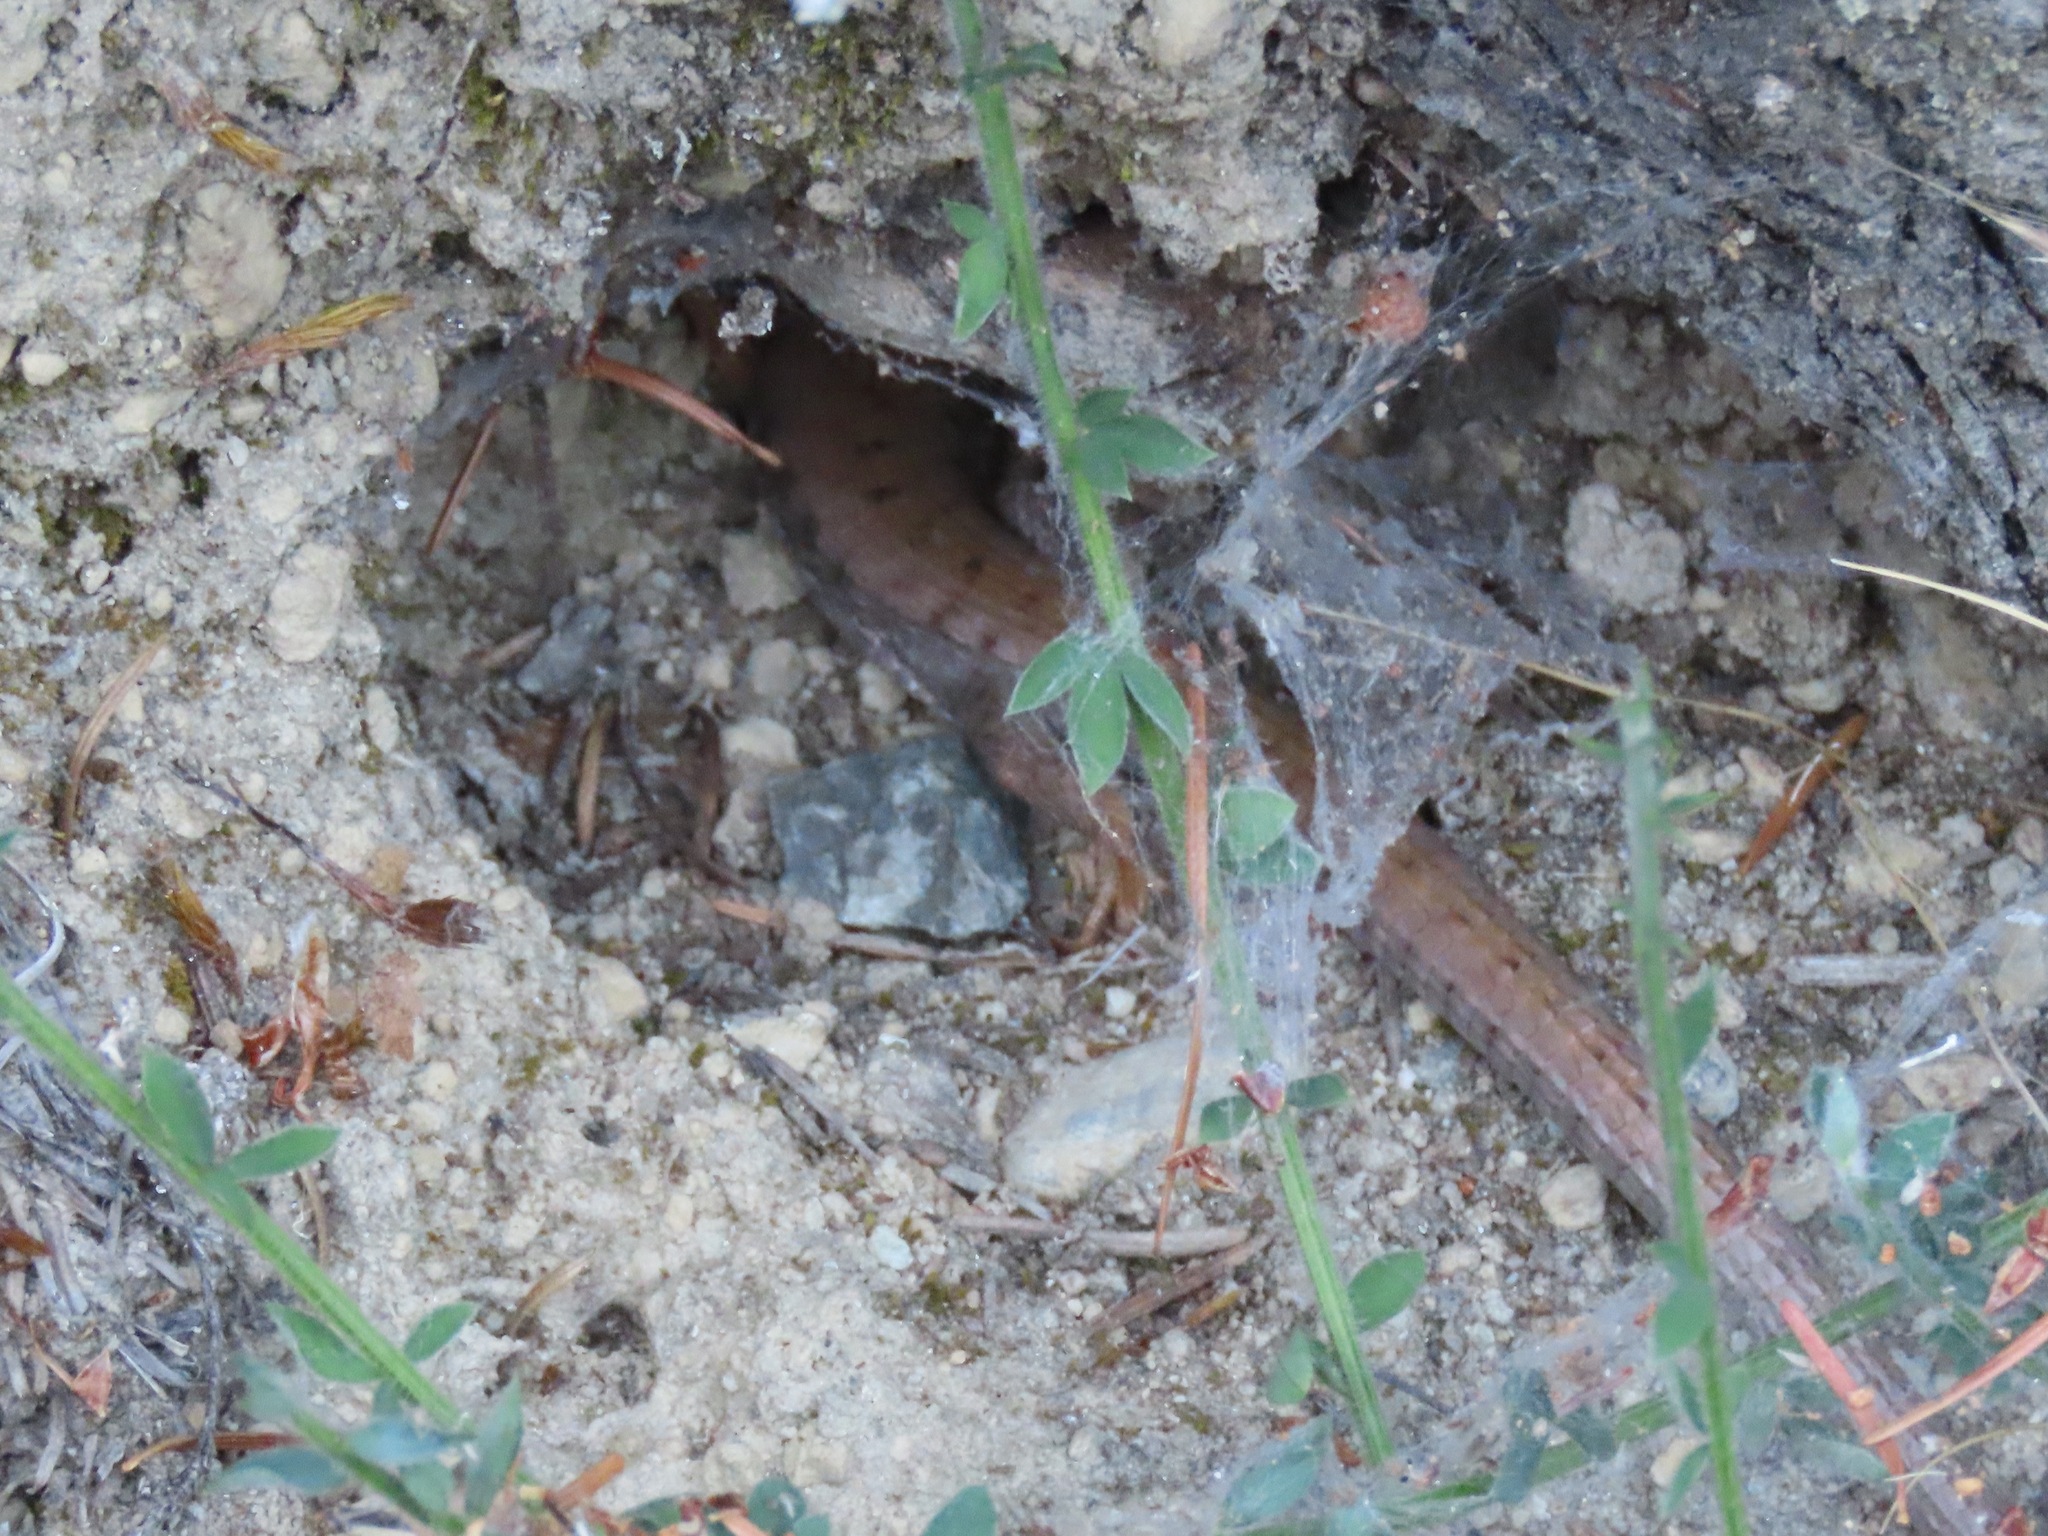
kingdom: Animalia
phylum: Chordata
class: Squamata
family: Anguidae
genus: Elgaria
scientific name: Elgaria coerulea
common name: Northern alligator lizard
